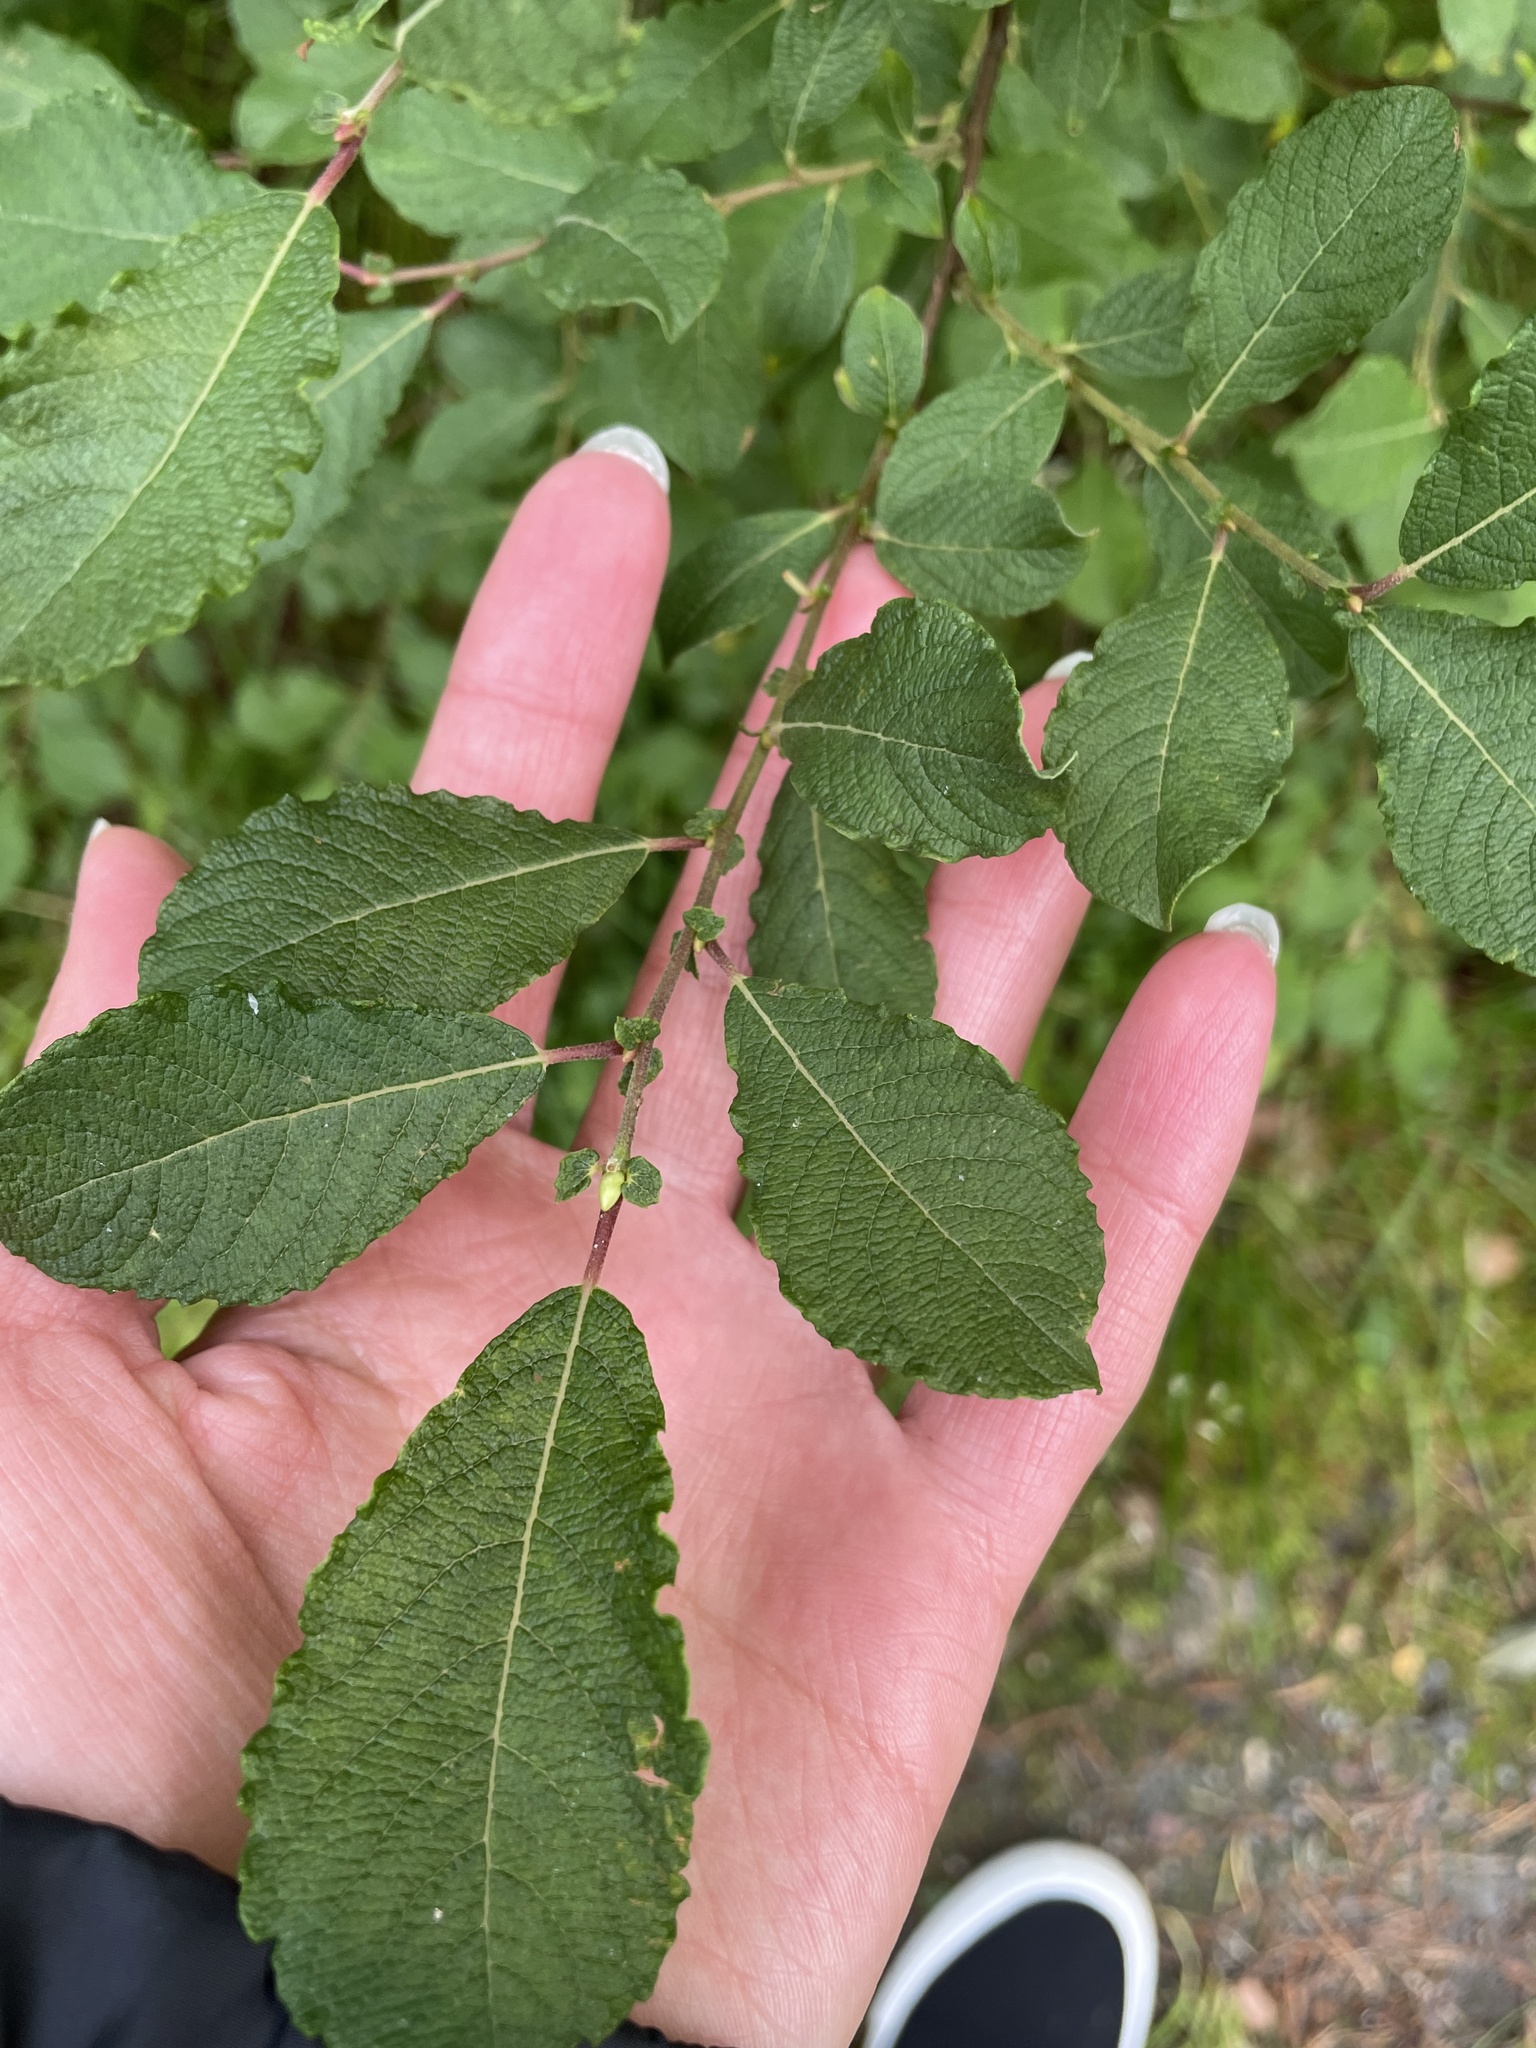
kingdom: Plantae
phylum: Tracheophyta
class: Magnoliopsida
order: Malpighiales
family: Salicaceae
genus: Salix
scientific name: Salix aurita
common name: Eared willow
